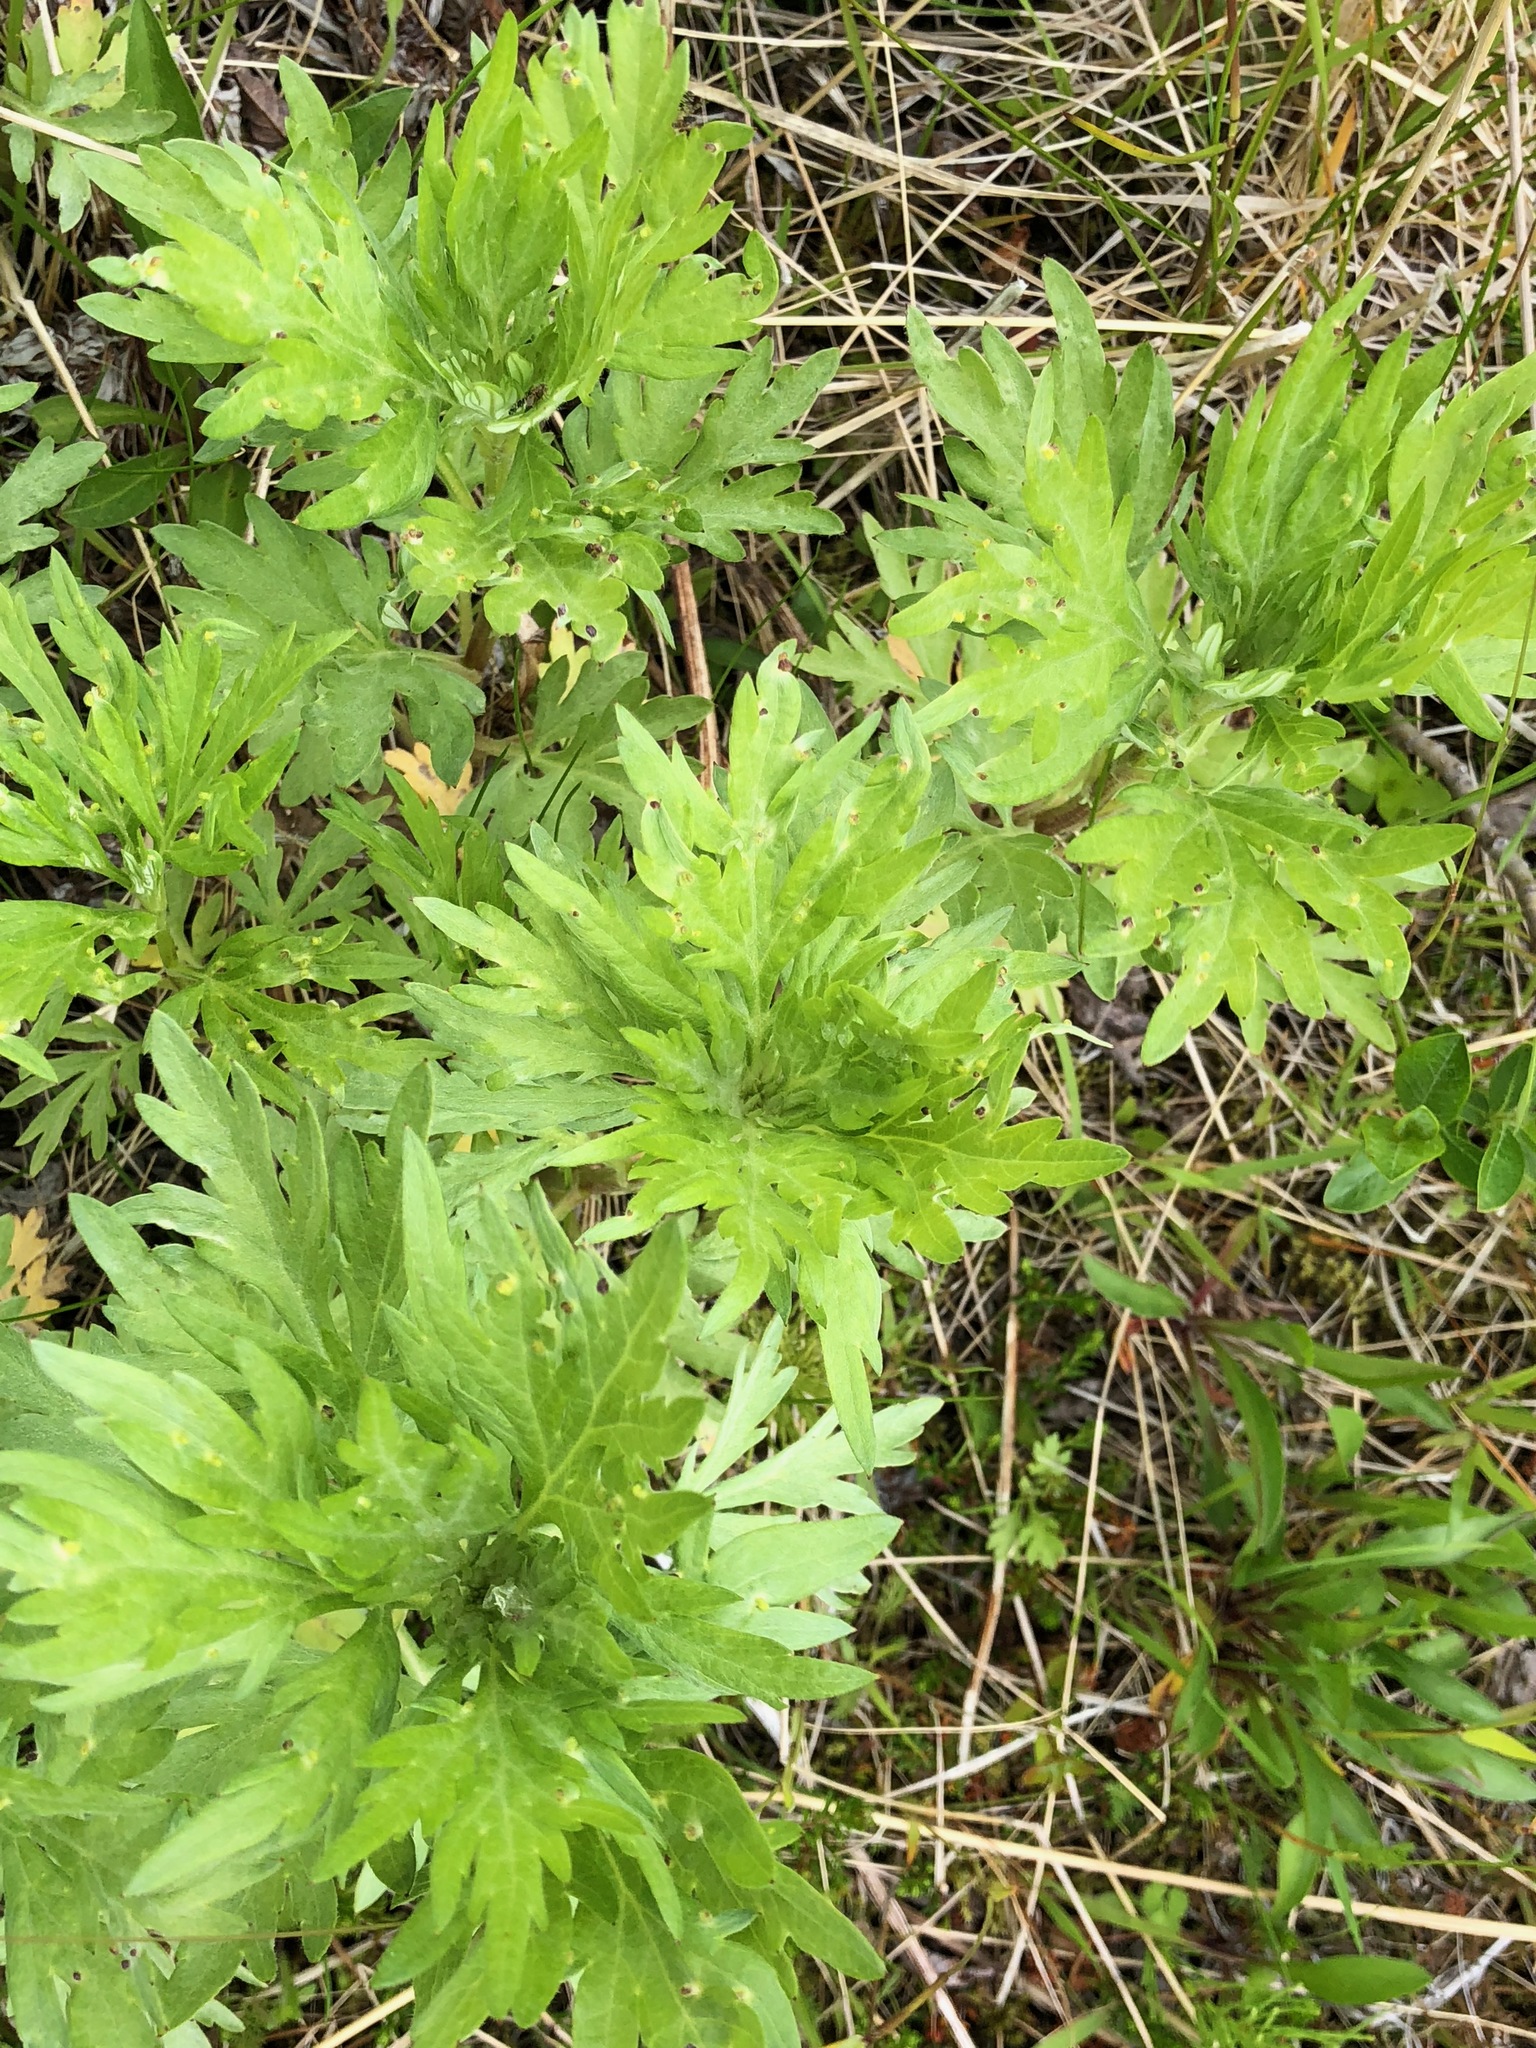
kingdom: Plantae
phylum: Tracheophyta
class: Magnoliopsida
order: Asterales
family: Asteraceae
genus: Artemisia
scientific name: Artemisia tilesii
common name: Aleutian mugwort
